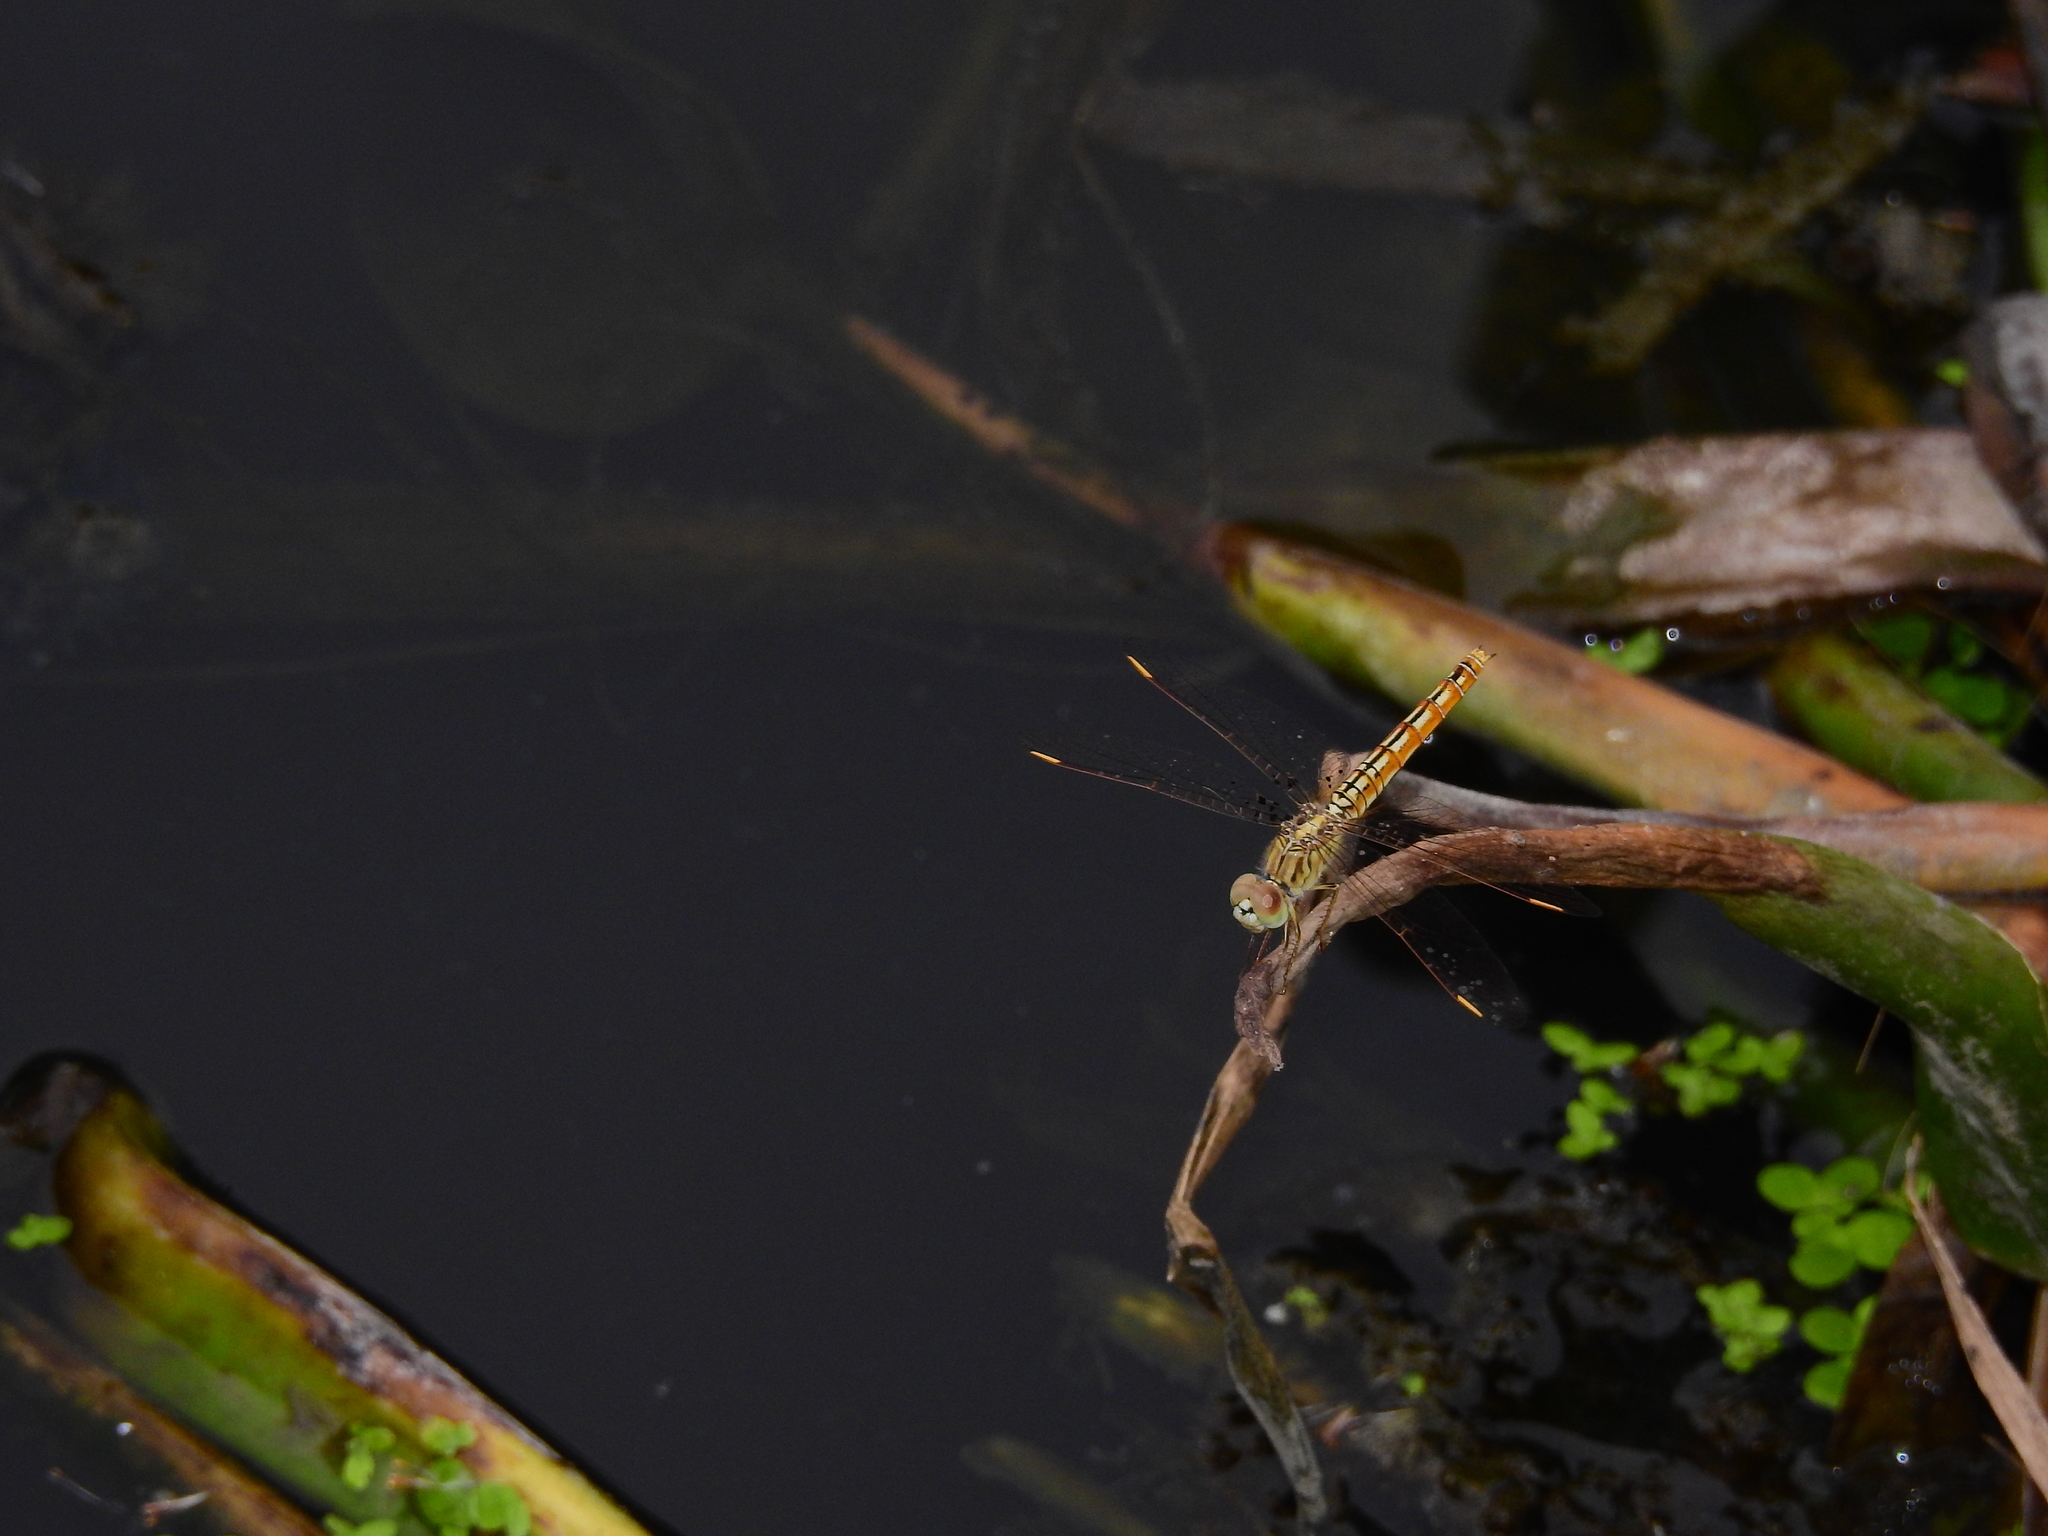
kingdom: Animalia
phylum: Arthropoda
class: Insecta
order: Odonata
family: Libellulidae
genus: Brachythemis
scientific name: Brachythemis contaminata
